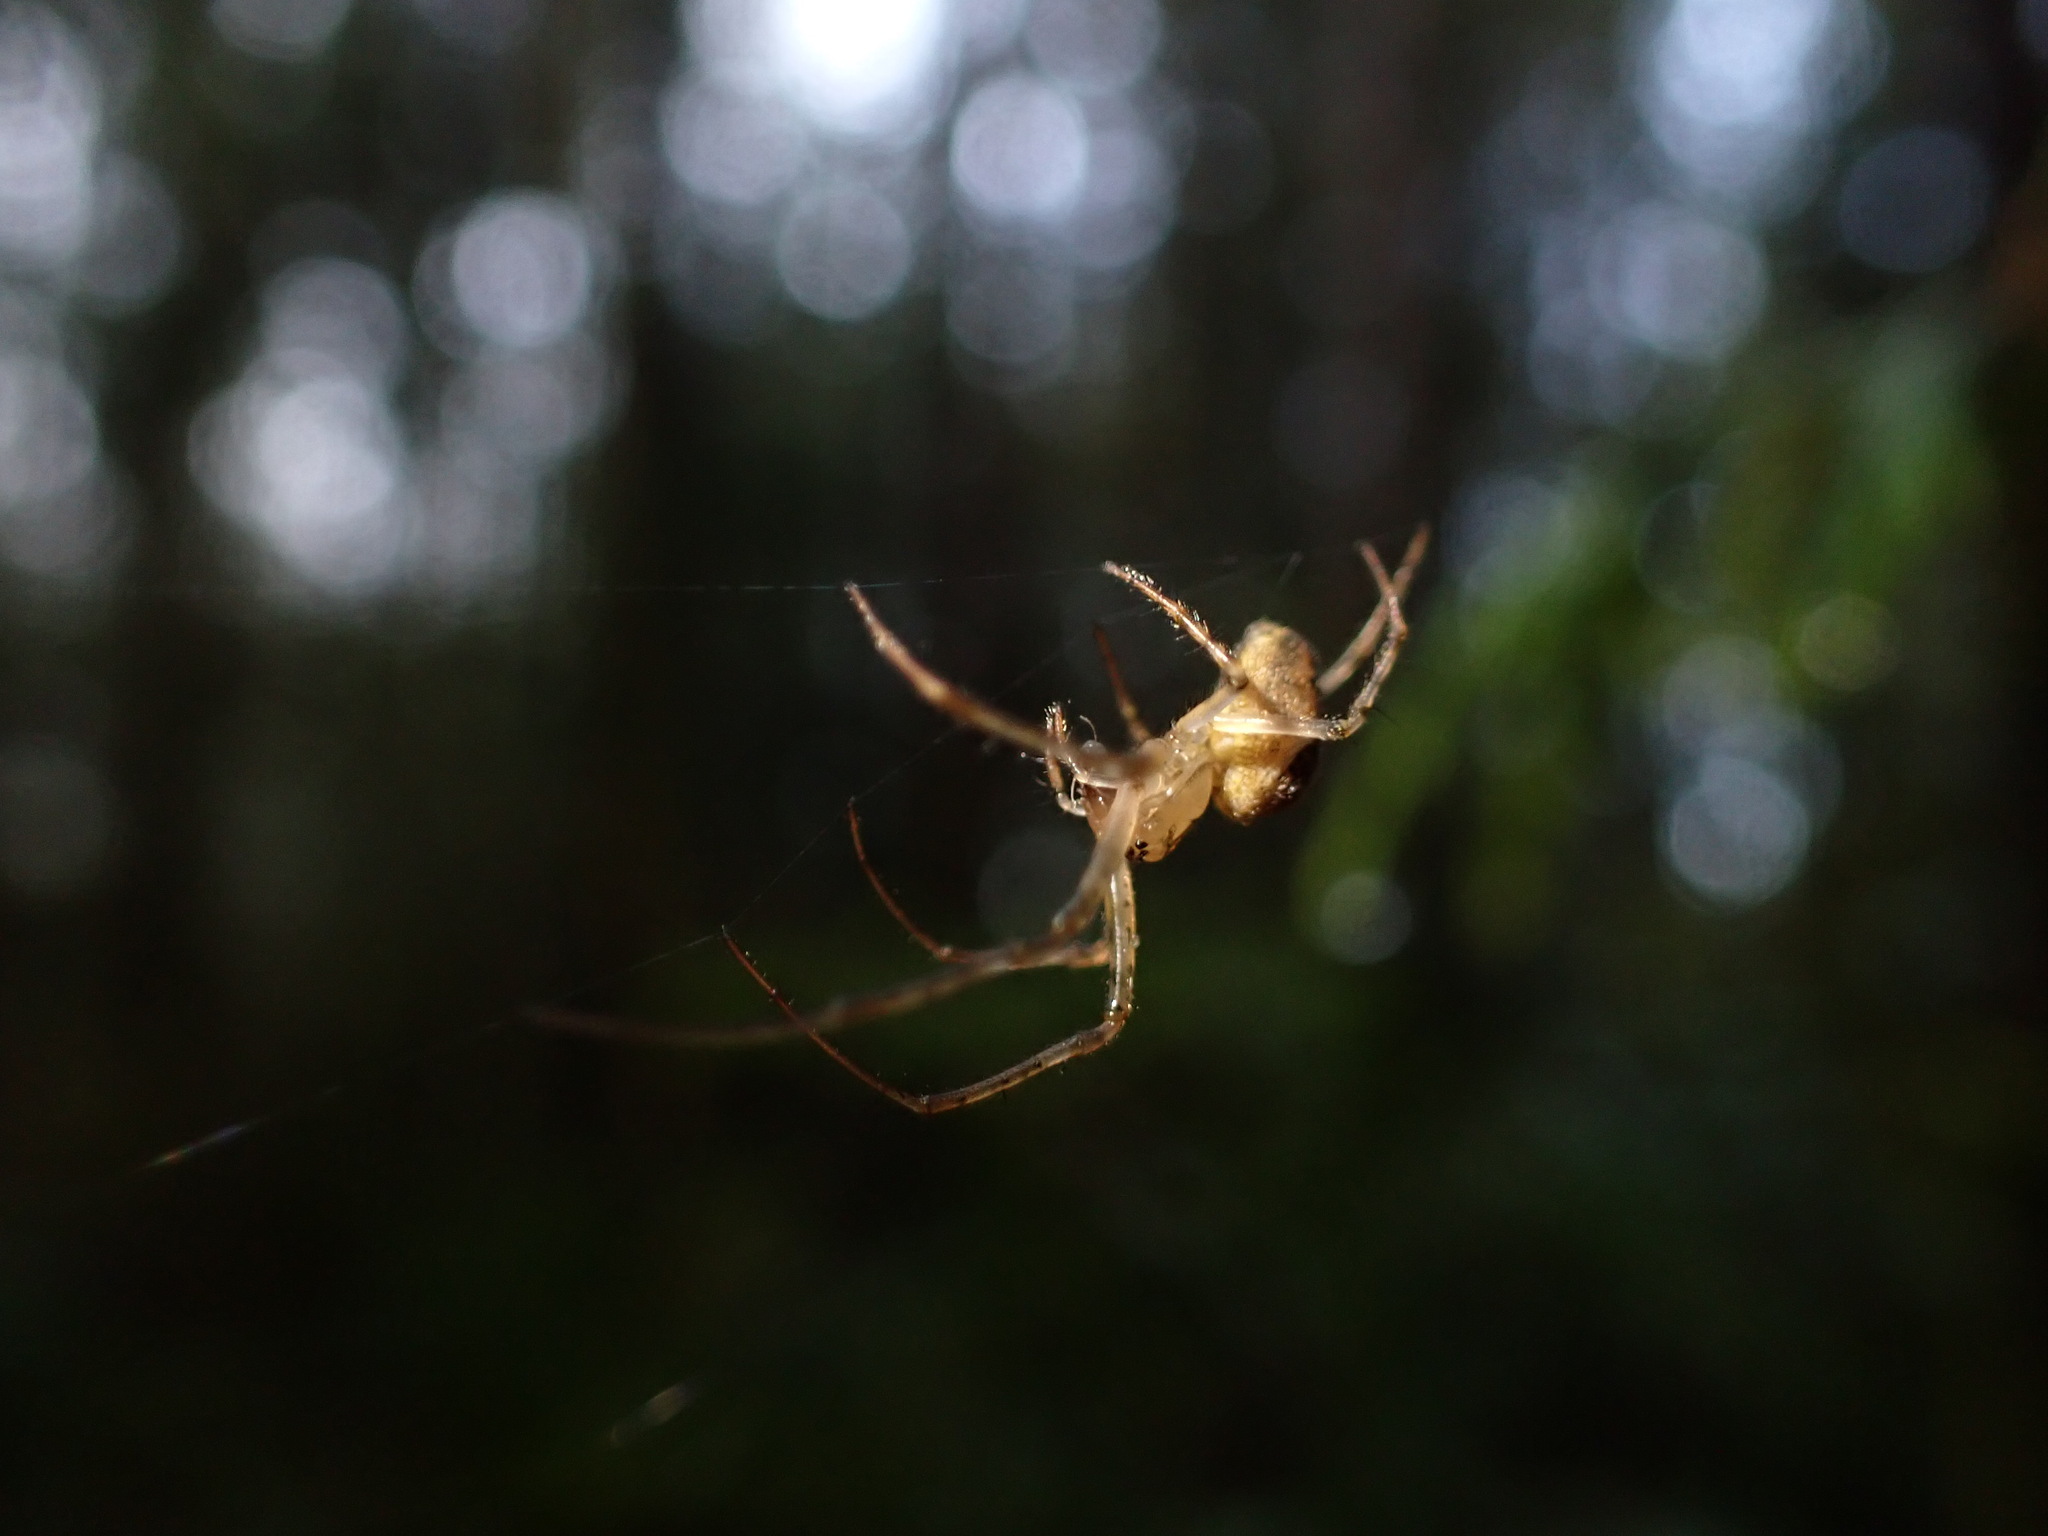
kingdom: Animalia
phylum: Arthropoda
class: Arachnida
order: Araneae
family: Tetragnathidae
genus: Metellina
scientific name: Metellina segmentata
